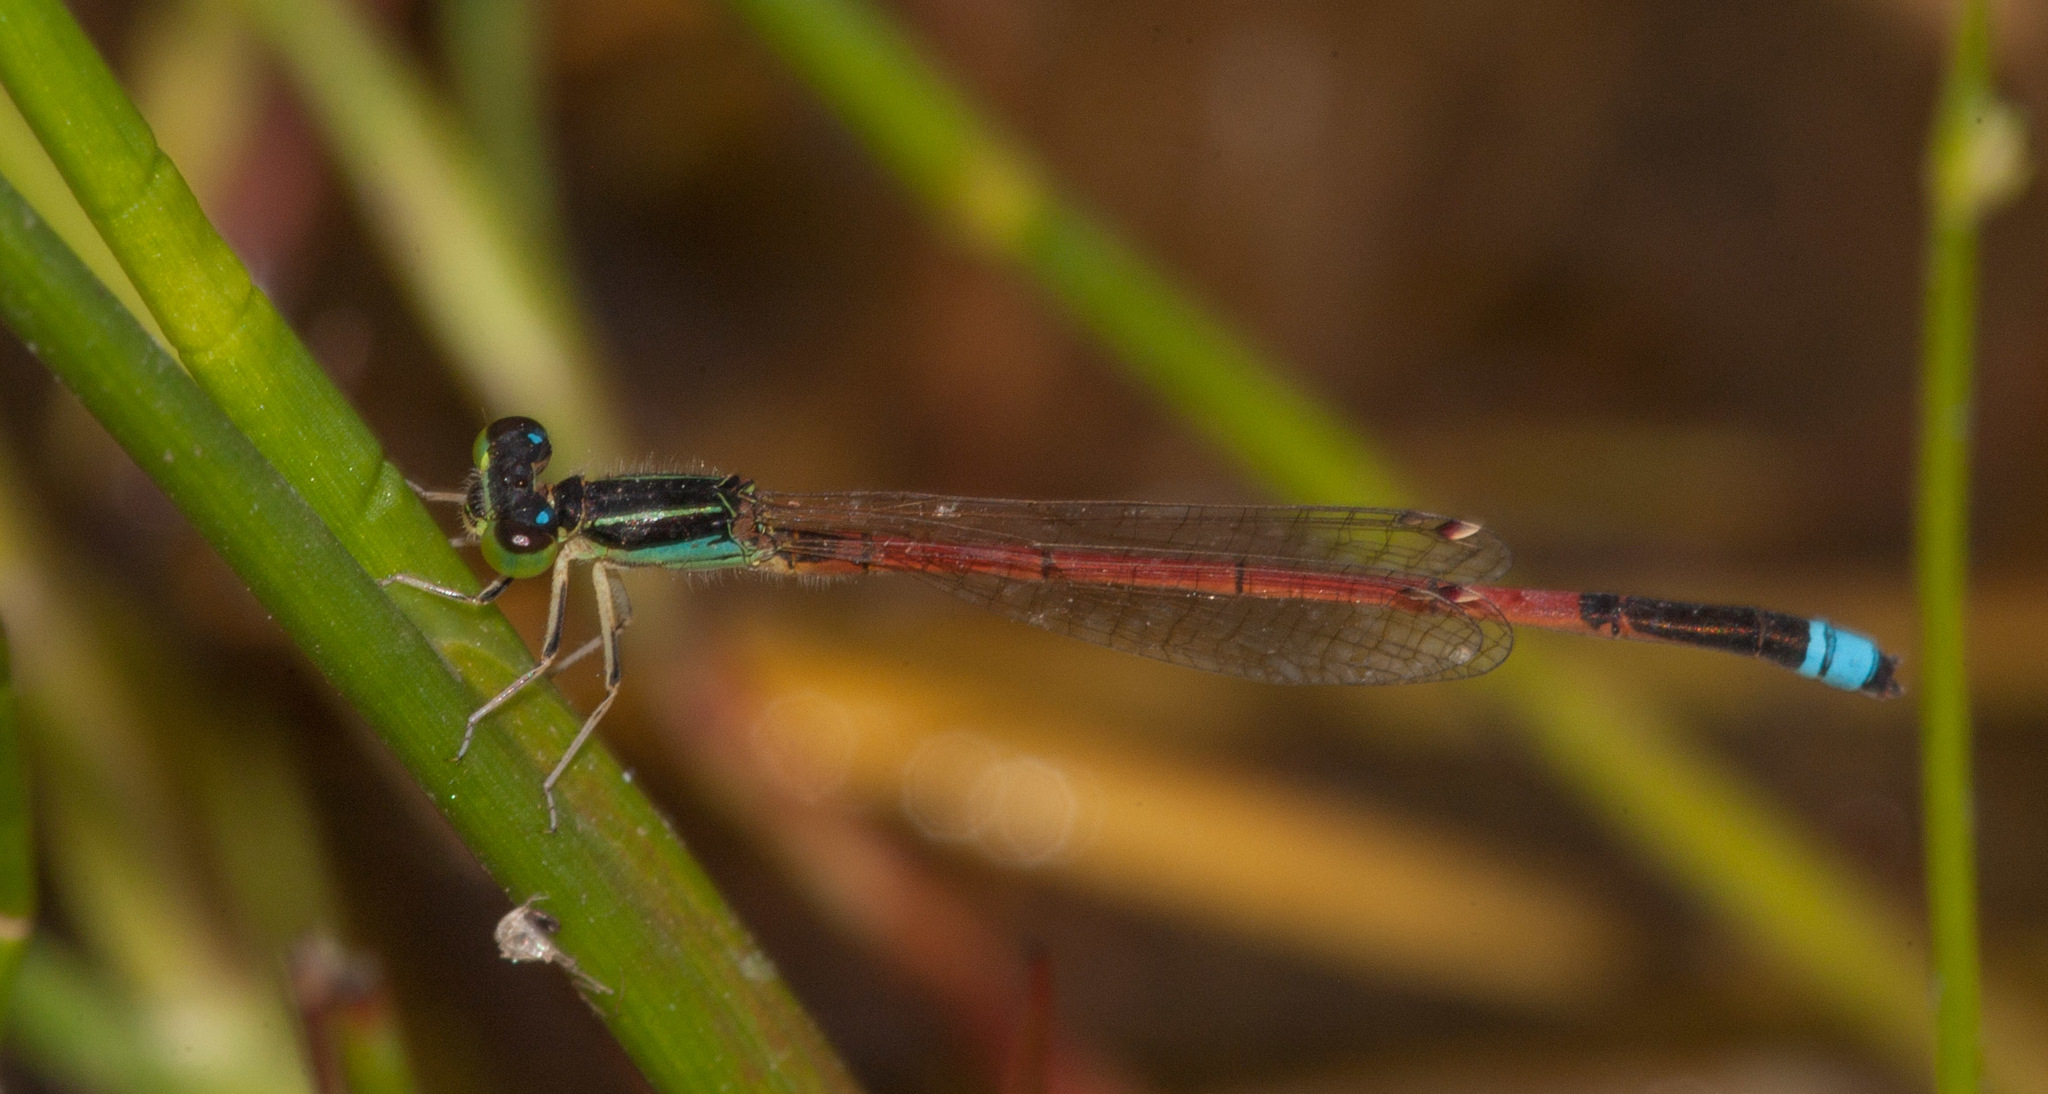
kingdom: Animalia
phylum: Arthropoda
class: Insecta
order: Odonata
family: Coenagrionidae
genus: Ischnura
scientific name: Ischnura aurora
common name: Gossamer damselfly
